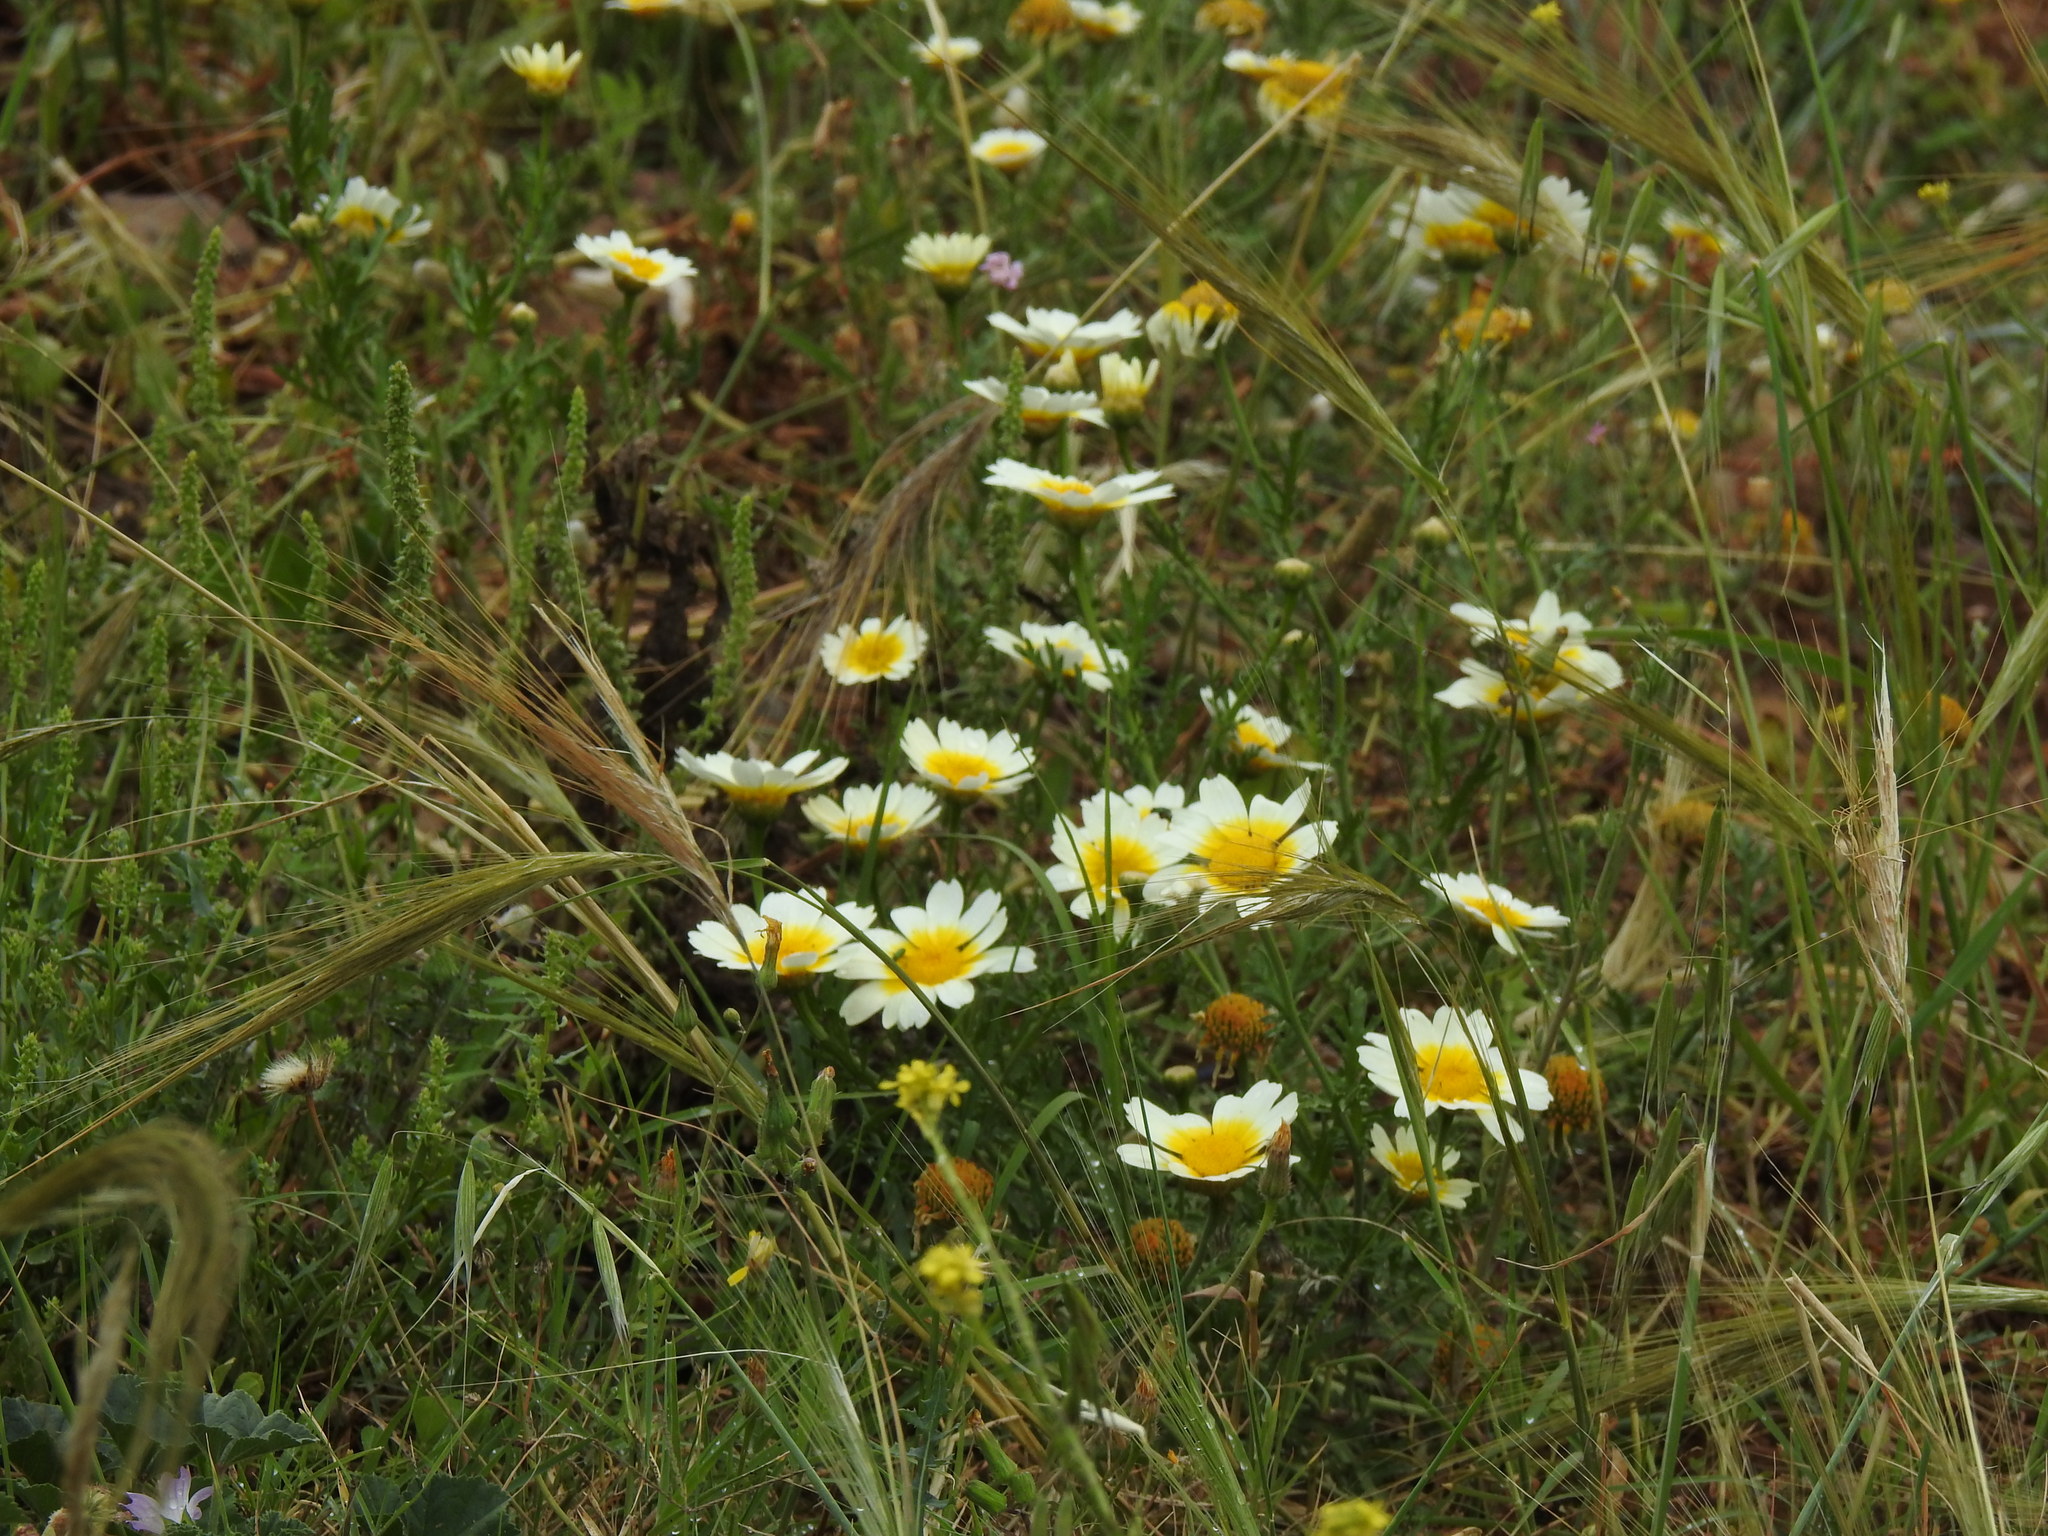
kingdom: Plantae
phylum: Tracheophyta
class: Magnoliopsida
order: Asterales
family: Asteraceae
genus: Glebionis
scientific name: Glebionis coronaria
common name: Crowndaisy
